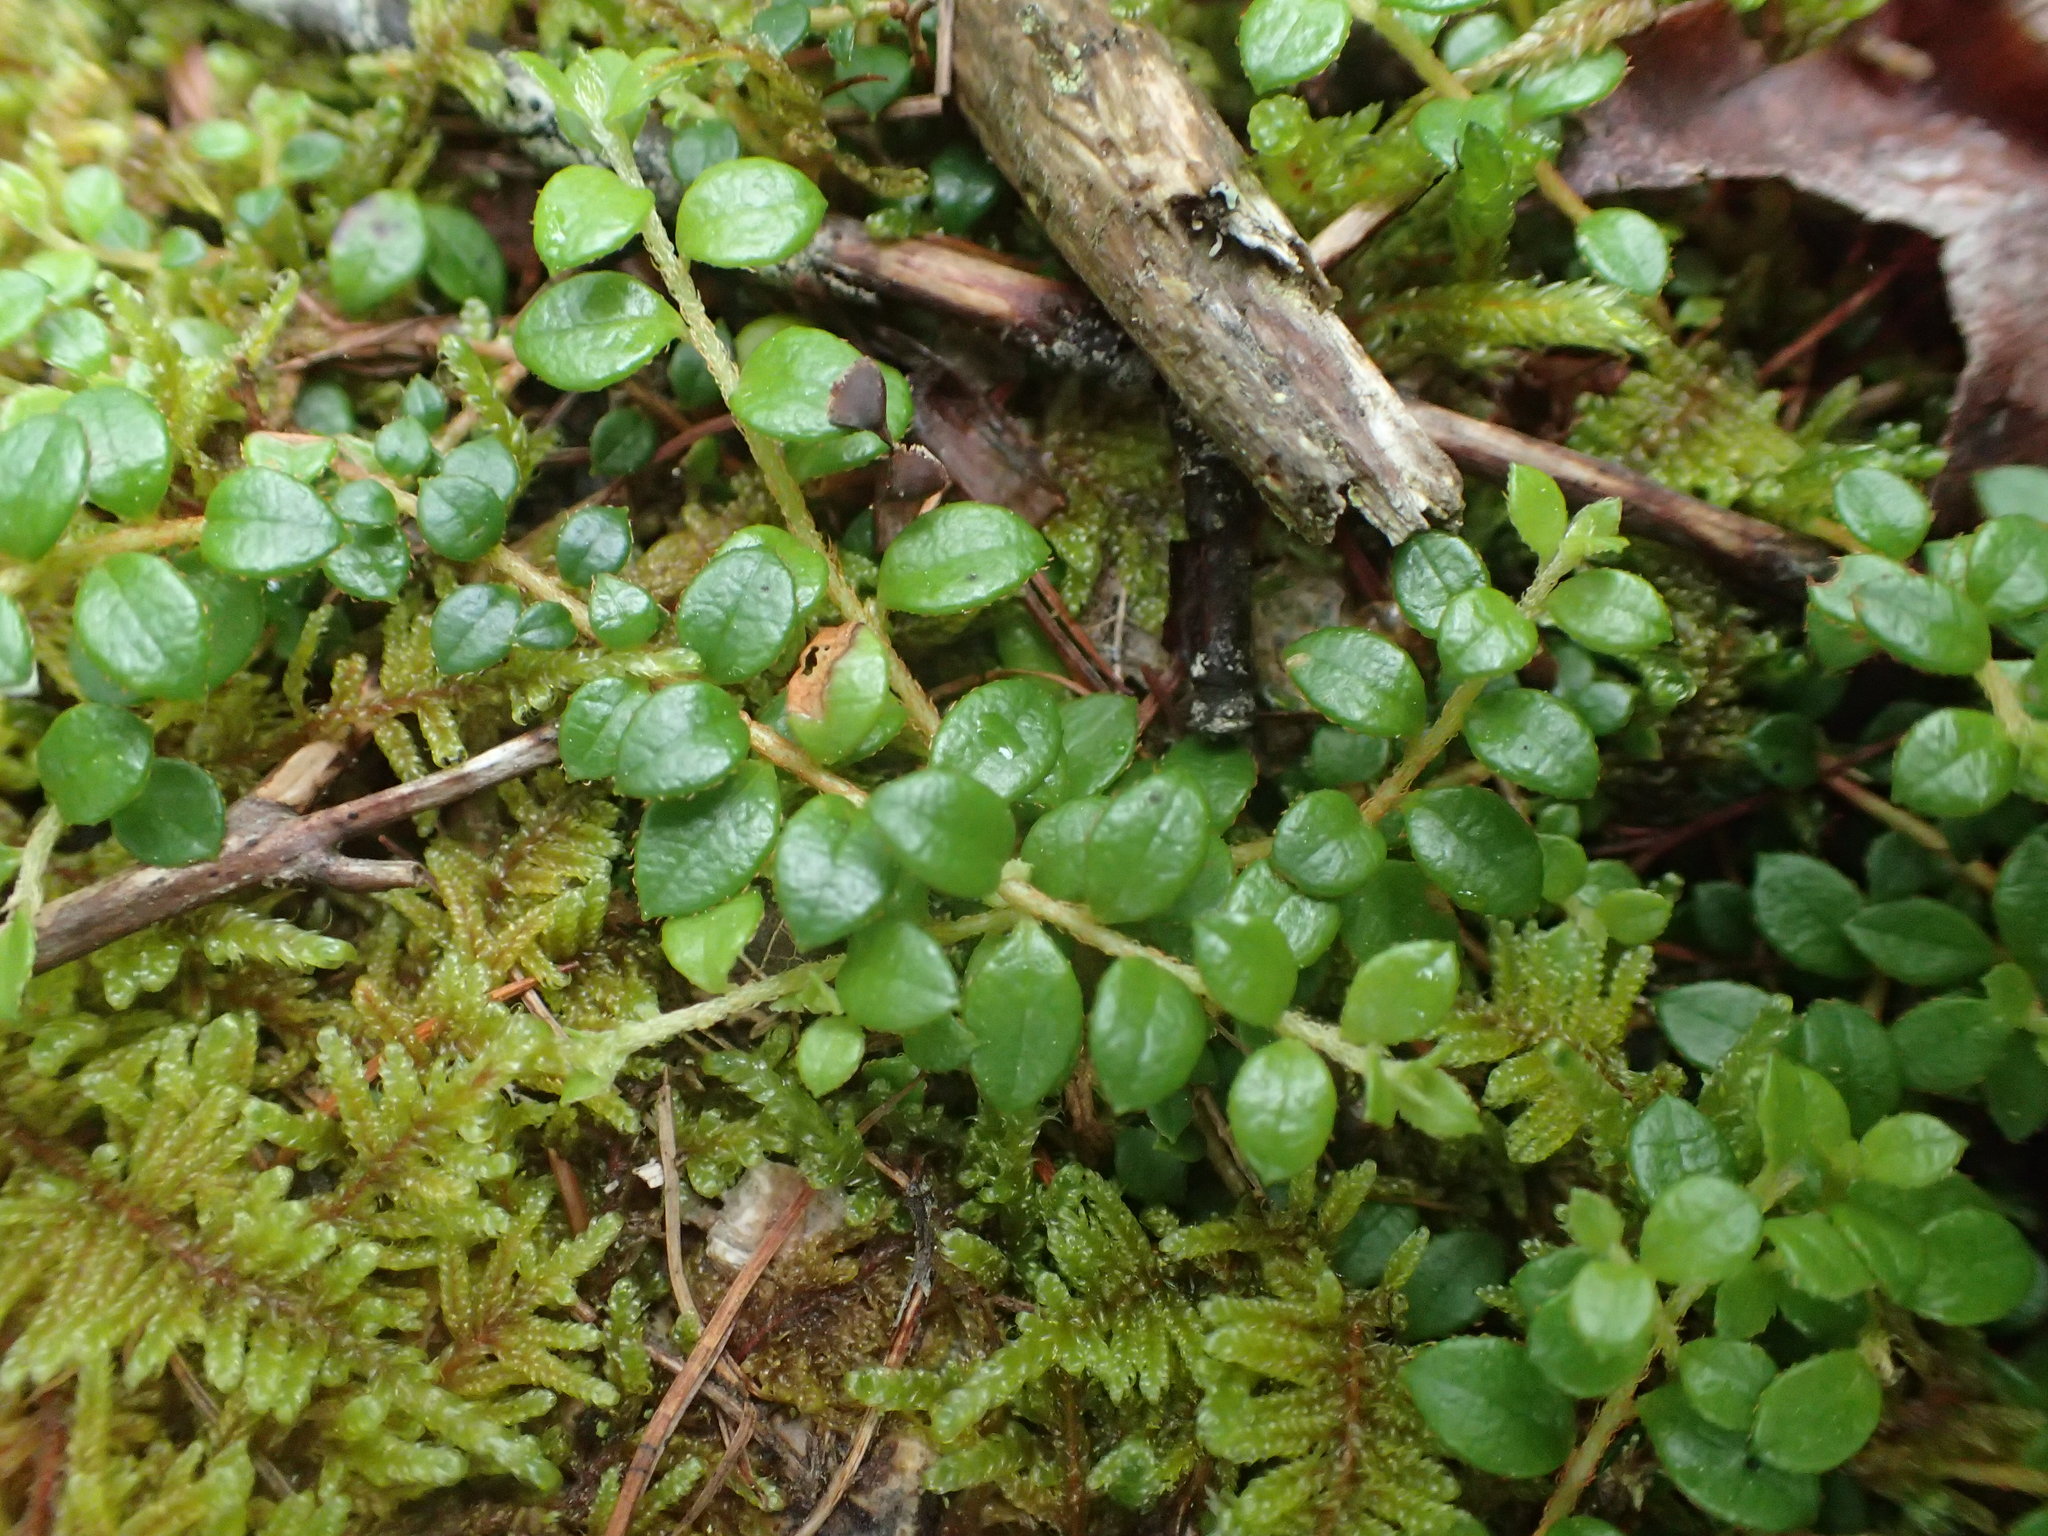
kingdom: Plantae
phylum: Tracheophyta
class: Magnoliopsida
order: Ericales
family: Ericaceae
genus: Gaultheria
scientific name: Gaultheria hispidula
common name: Cancer wintergreen
